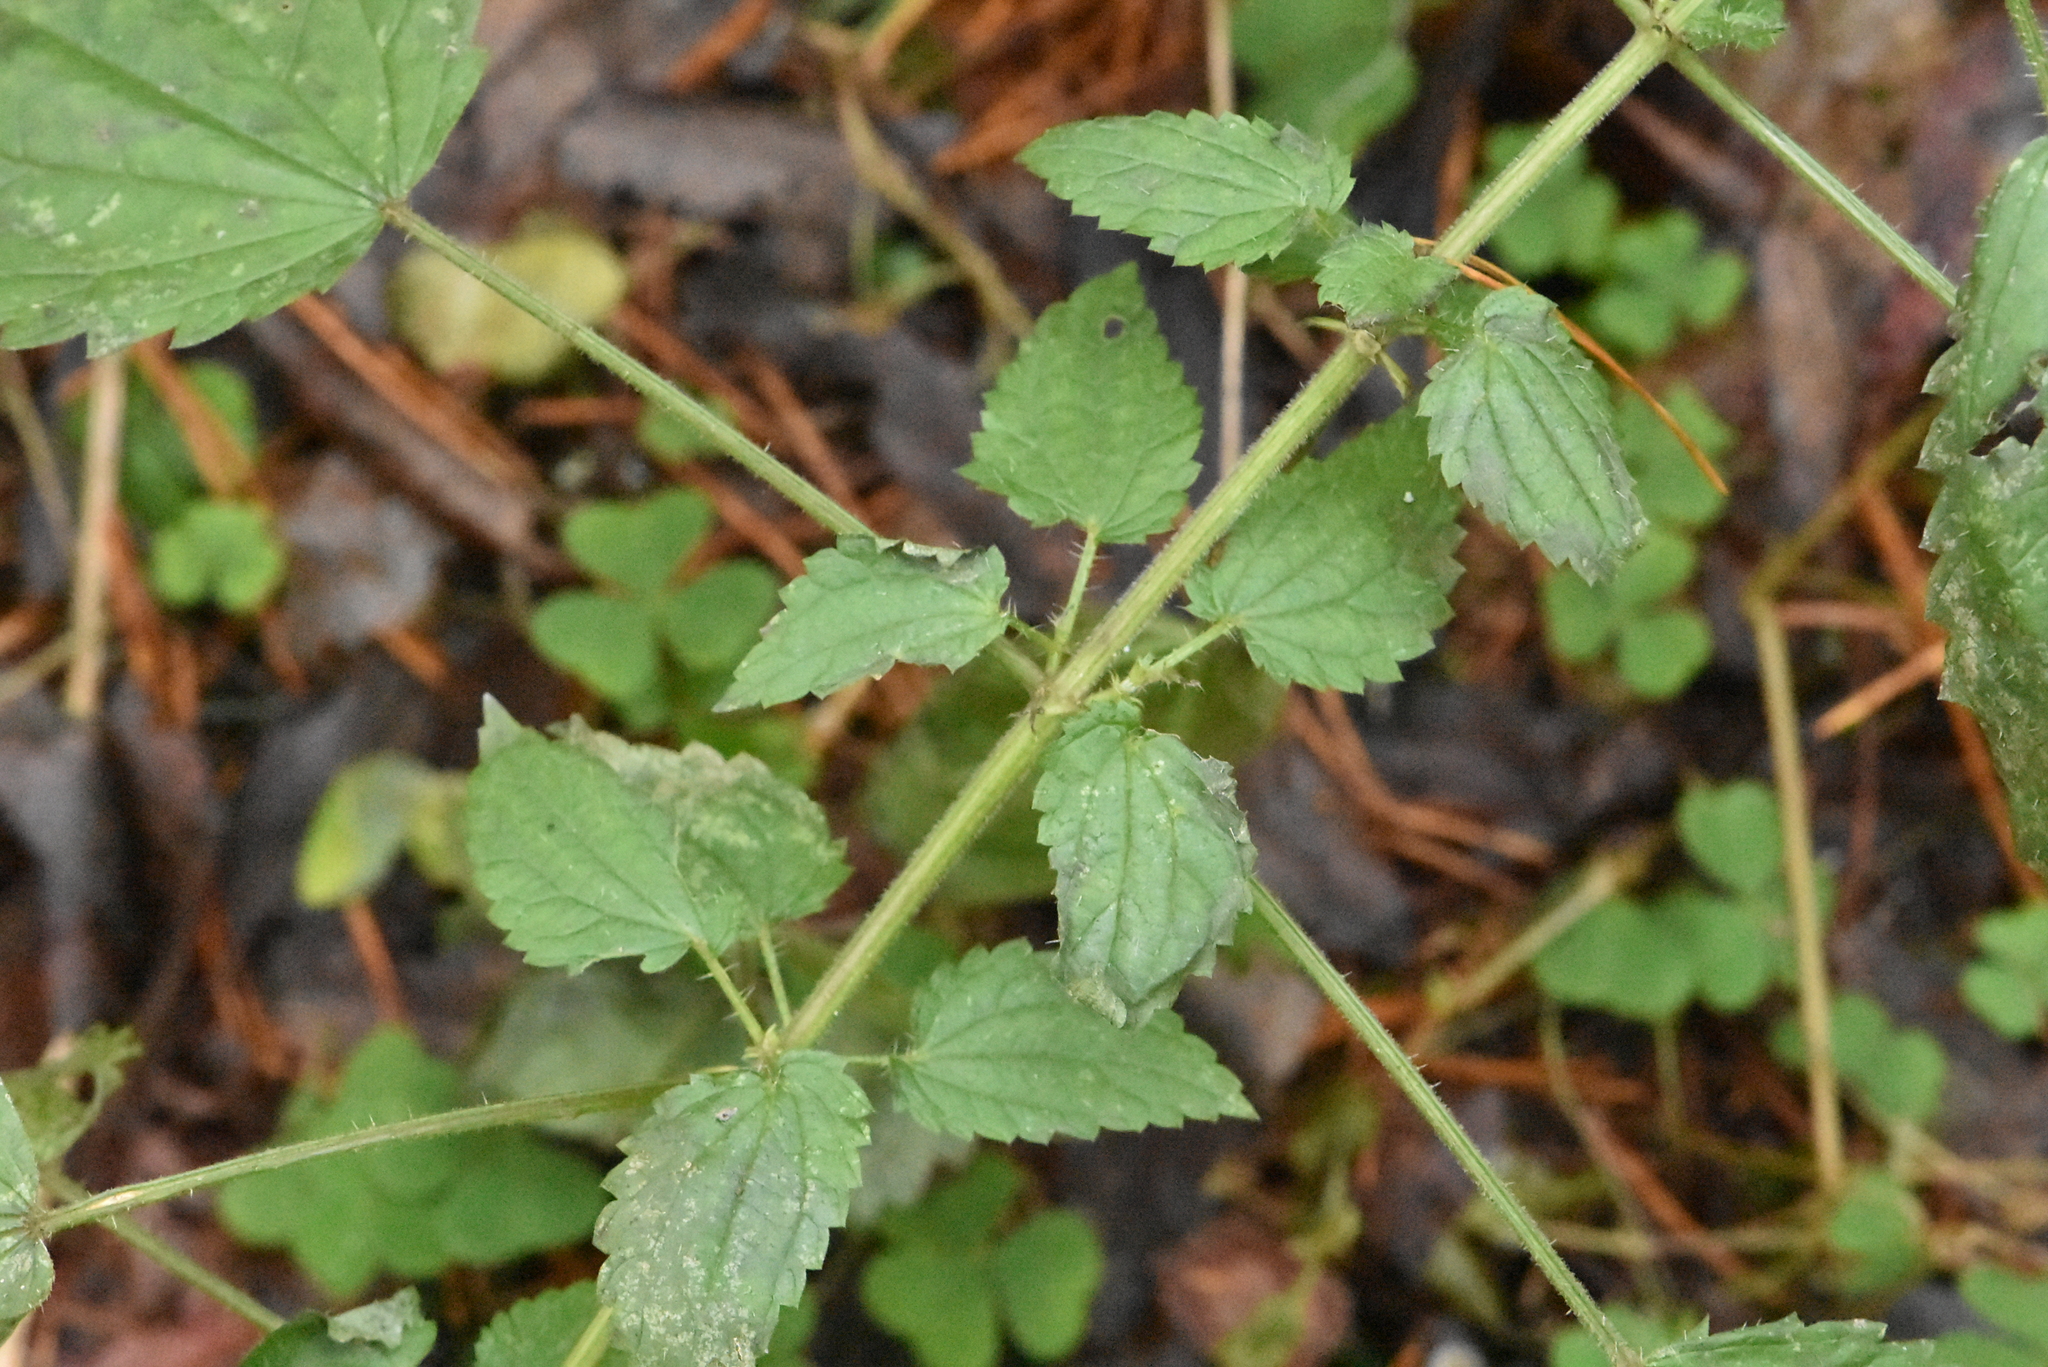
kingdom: Plantae
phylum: Tracheophyta
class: Magnoliopsida
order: Rosales
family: Urticaceae
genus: Urtica
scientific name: Urtica dioica
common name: Common nettle
